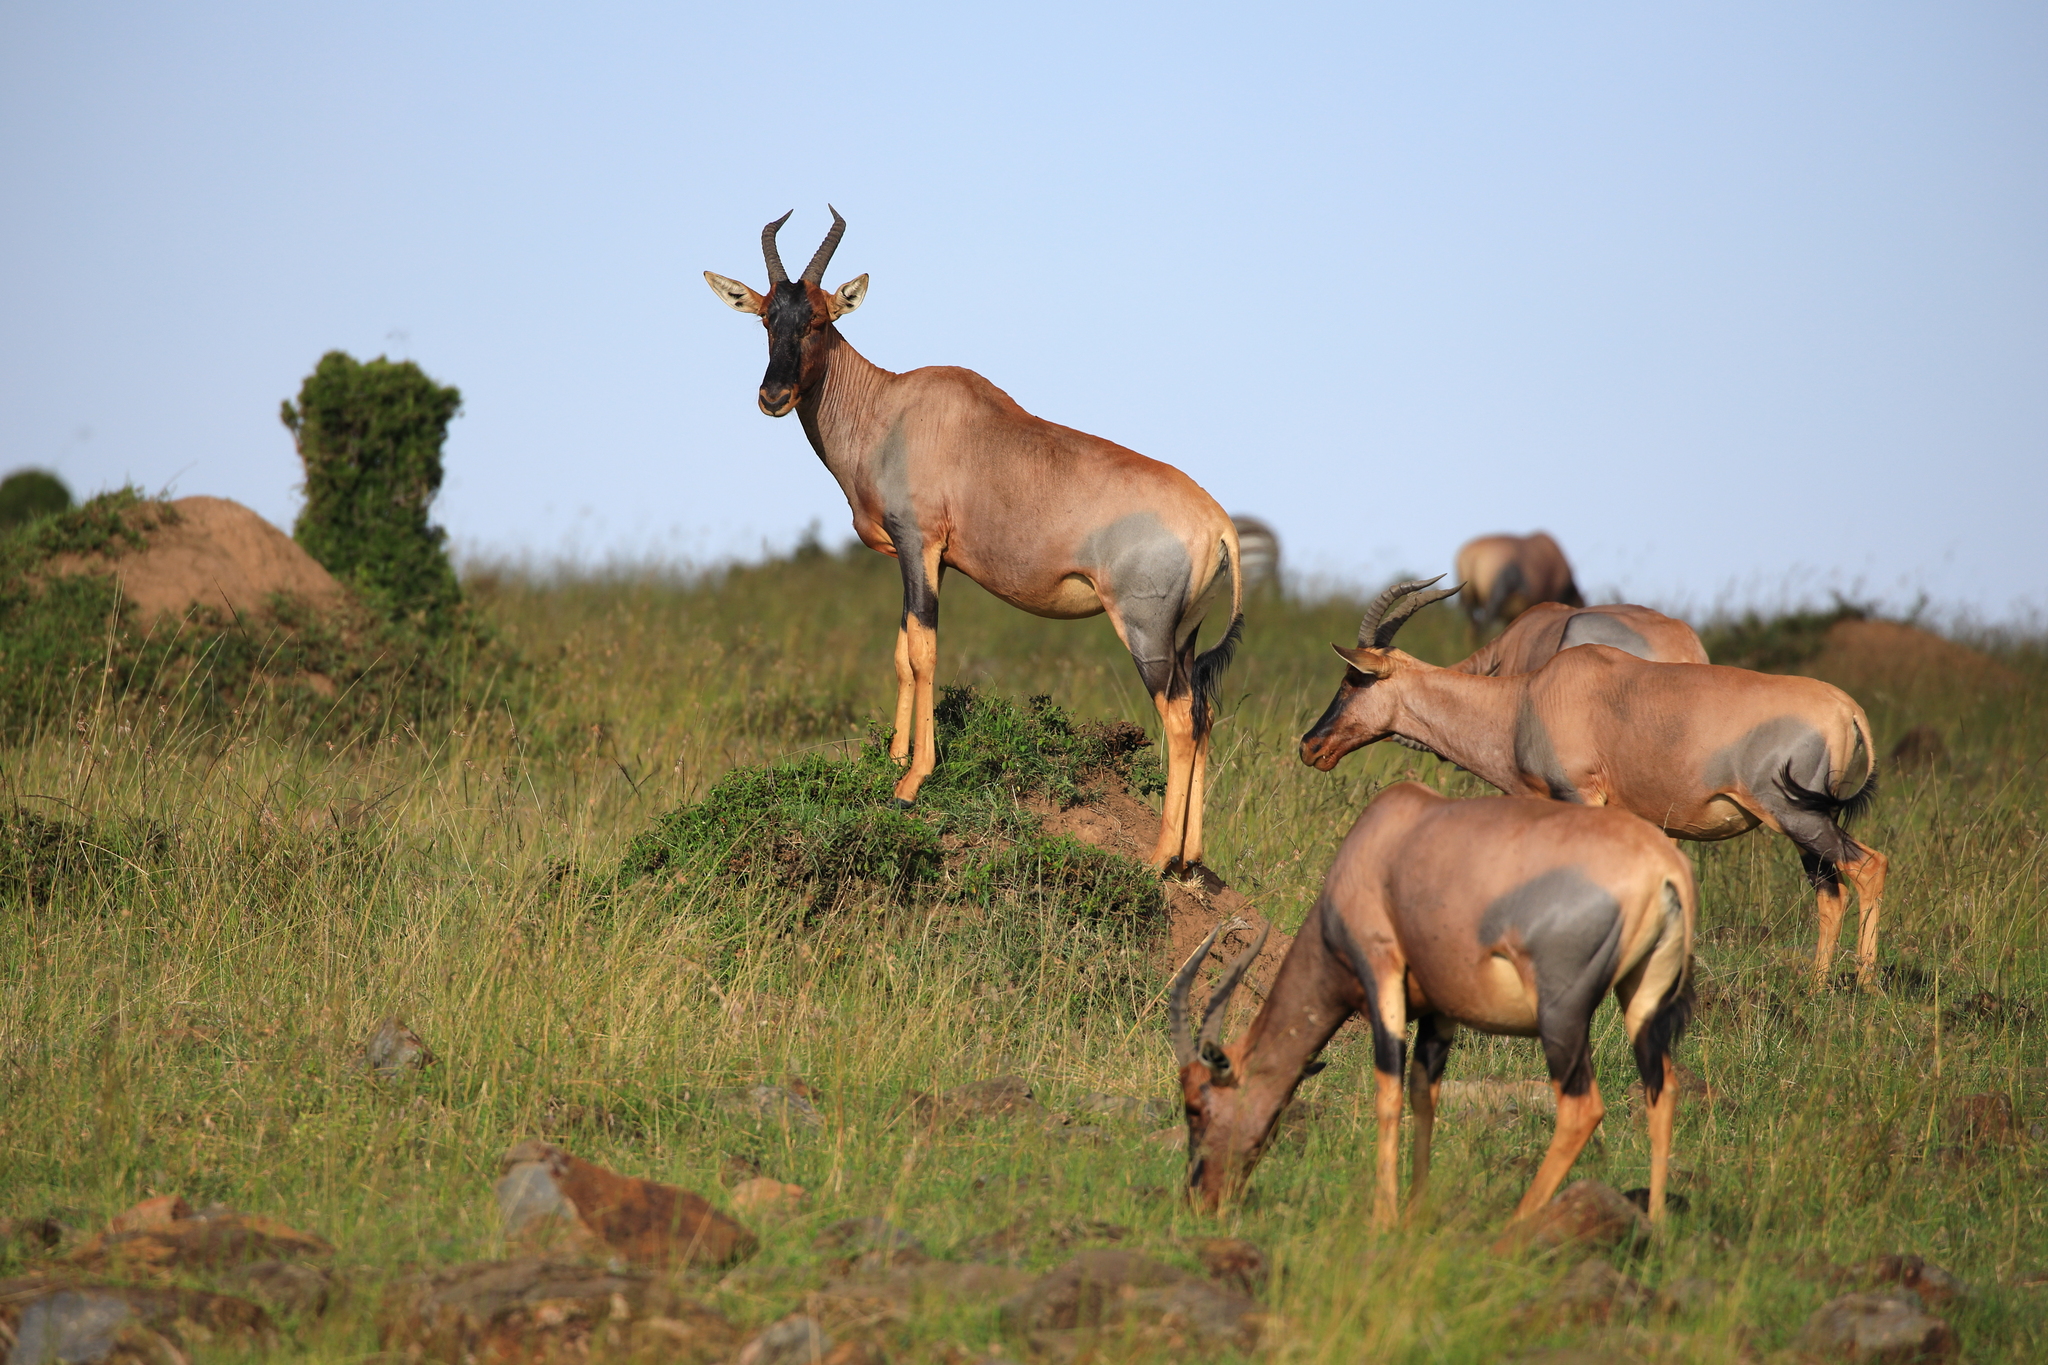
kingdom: Animalia
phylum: Chordata
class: Mammalia
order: Artiodactyla
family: Bovidae
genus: Damaliscus
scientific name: Damaliscus korrigum
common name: Topi
